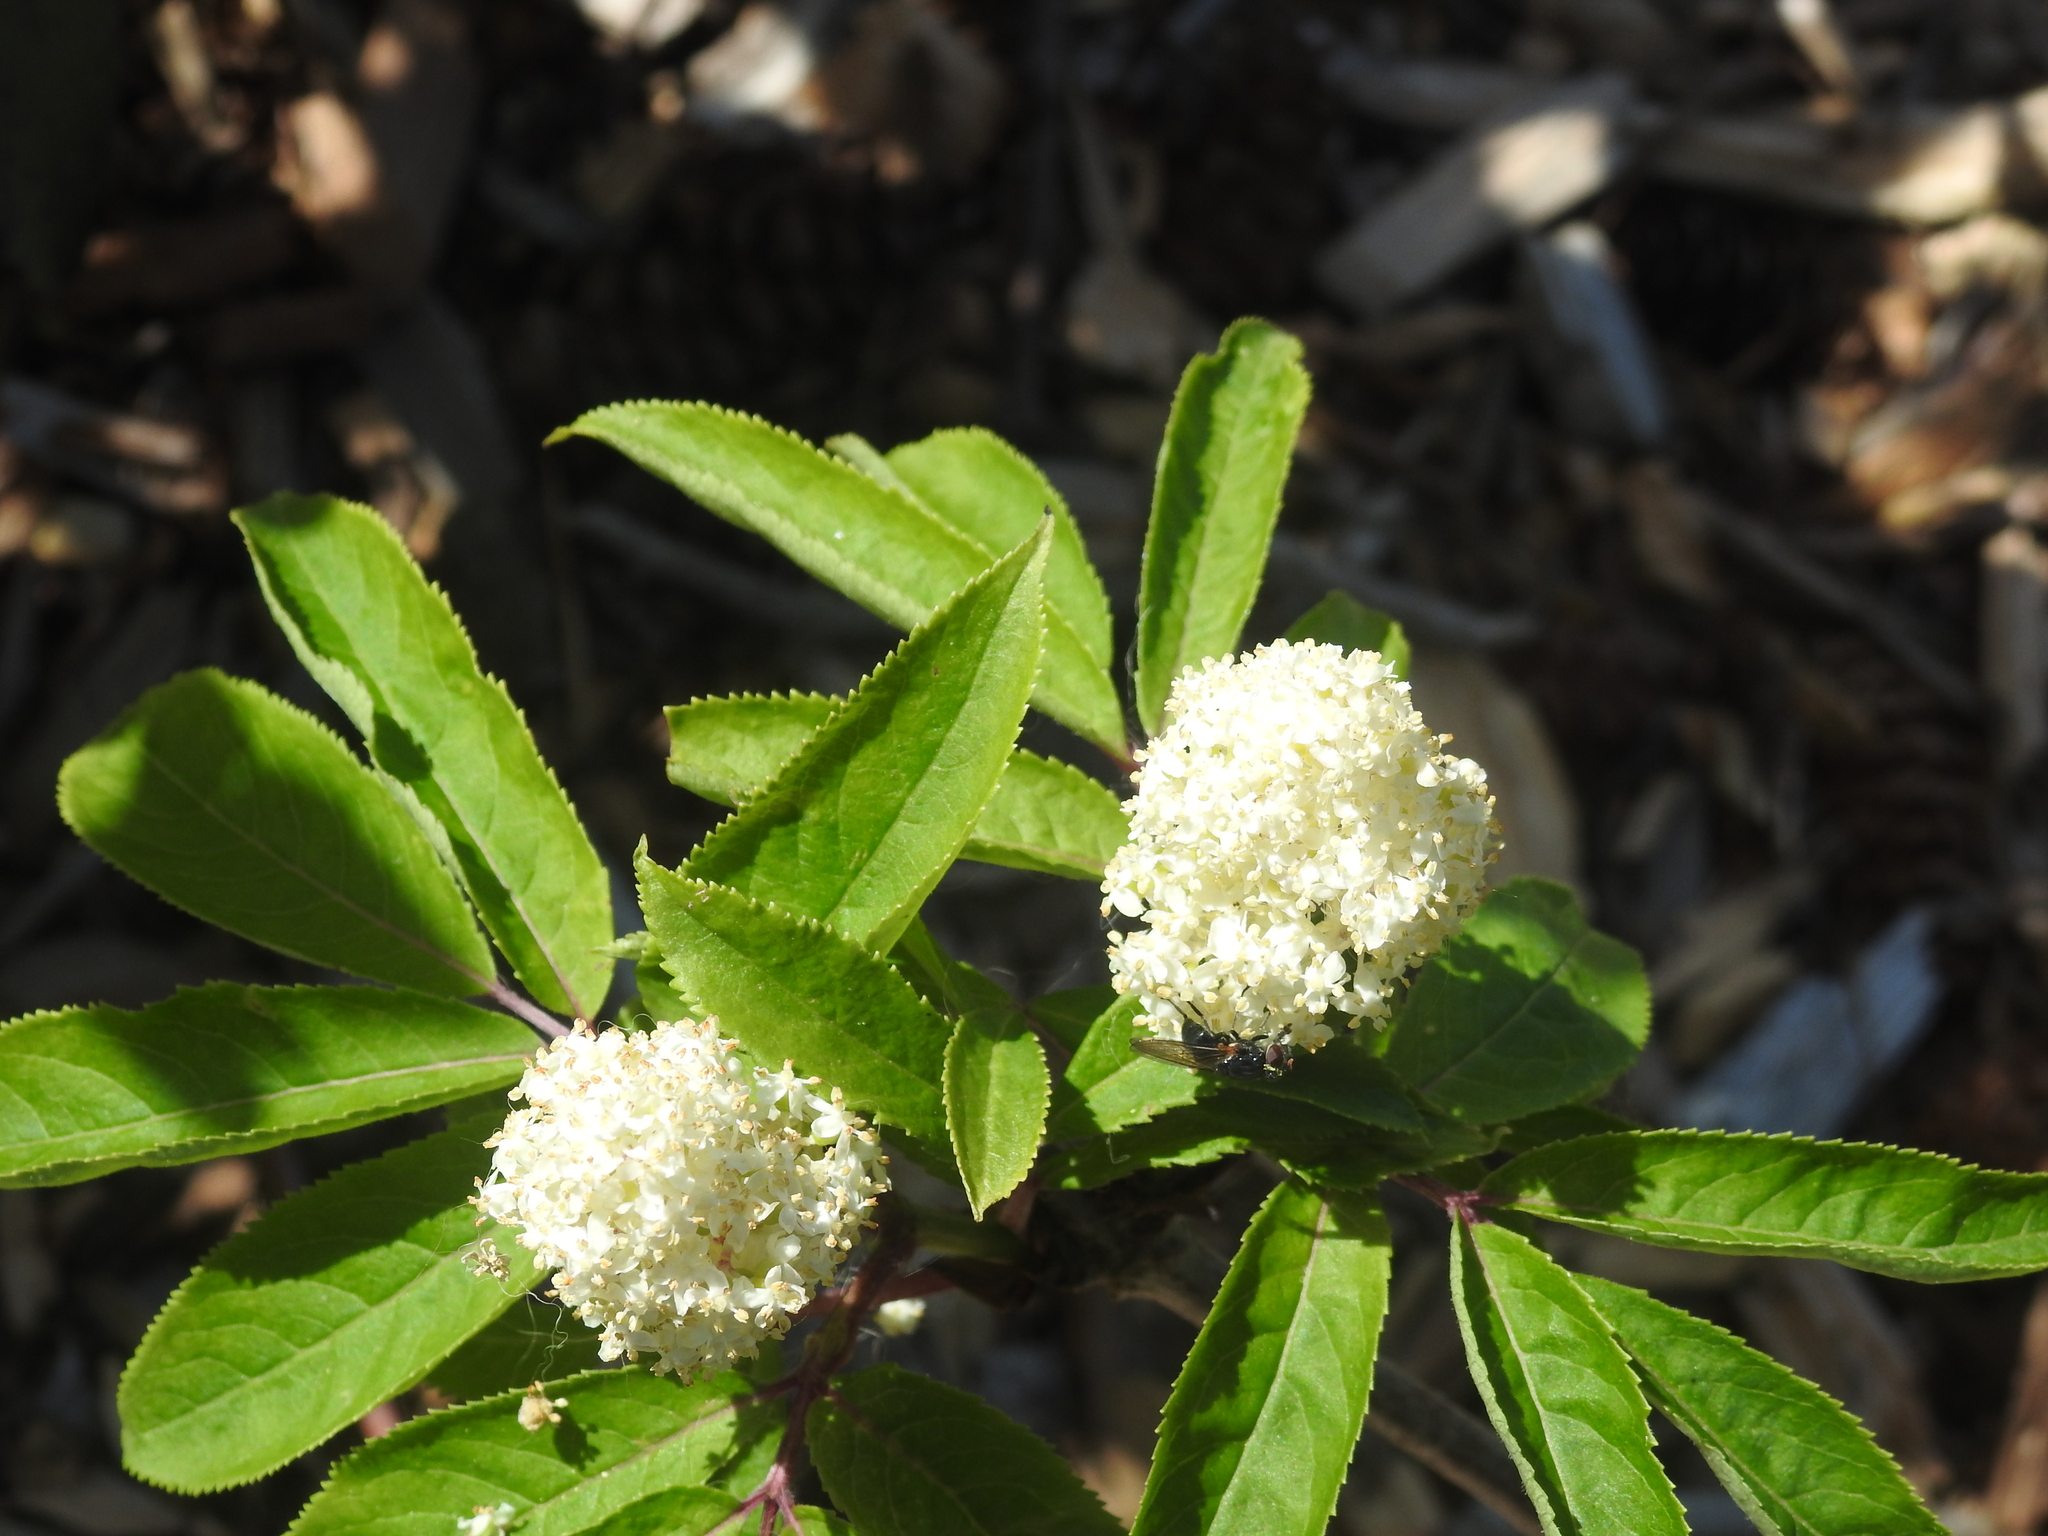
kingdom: Plantae
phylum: Tracheophyta
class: Magnoliopsida
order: Dipsacales
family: Viburnaceae
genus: Sambucus
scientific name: Sambucus racemosa
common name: Red-berried elder
